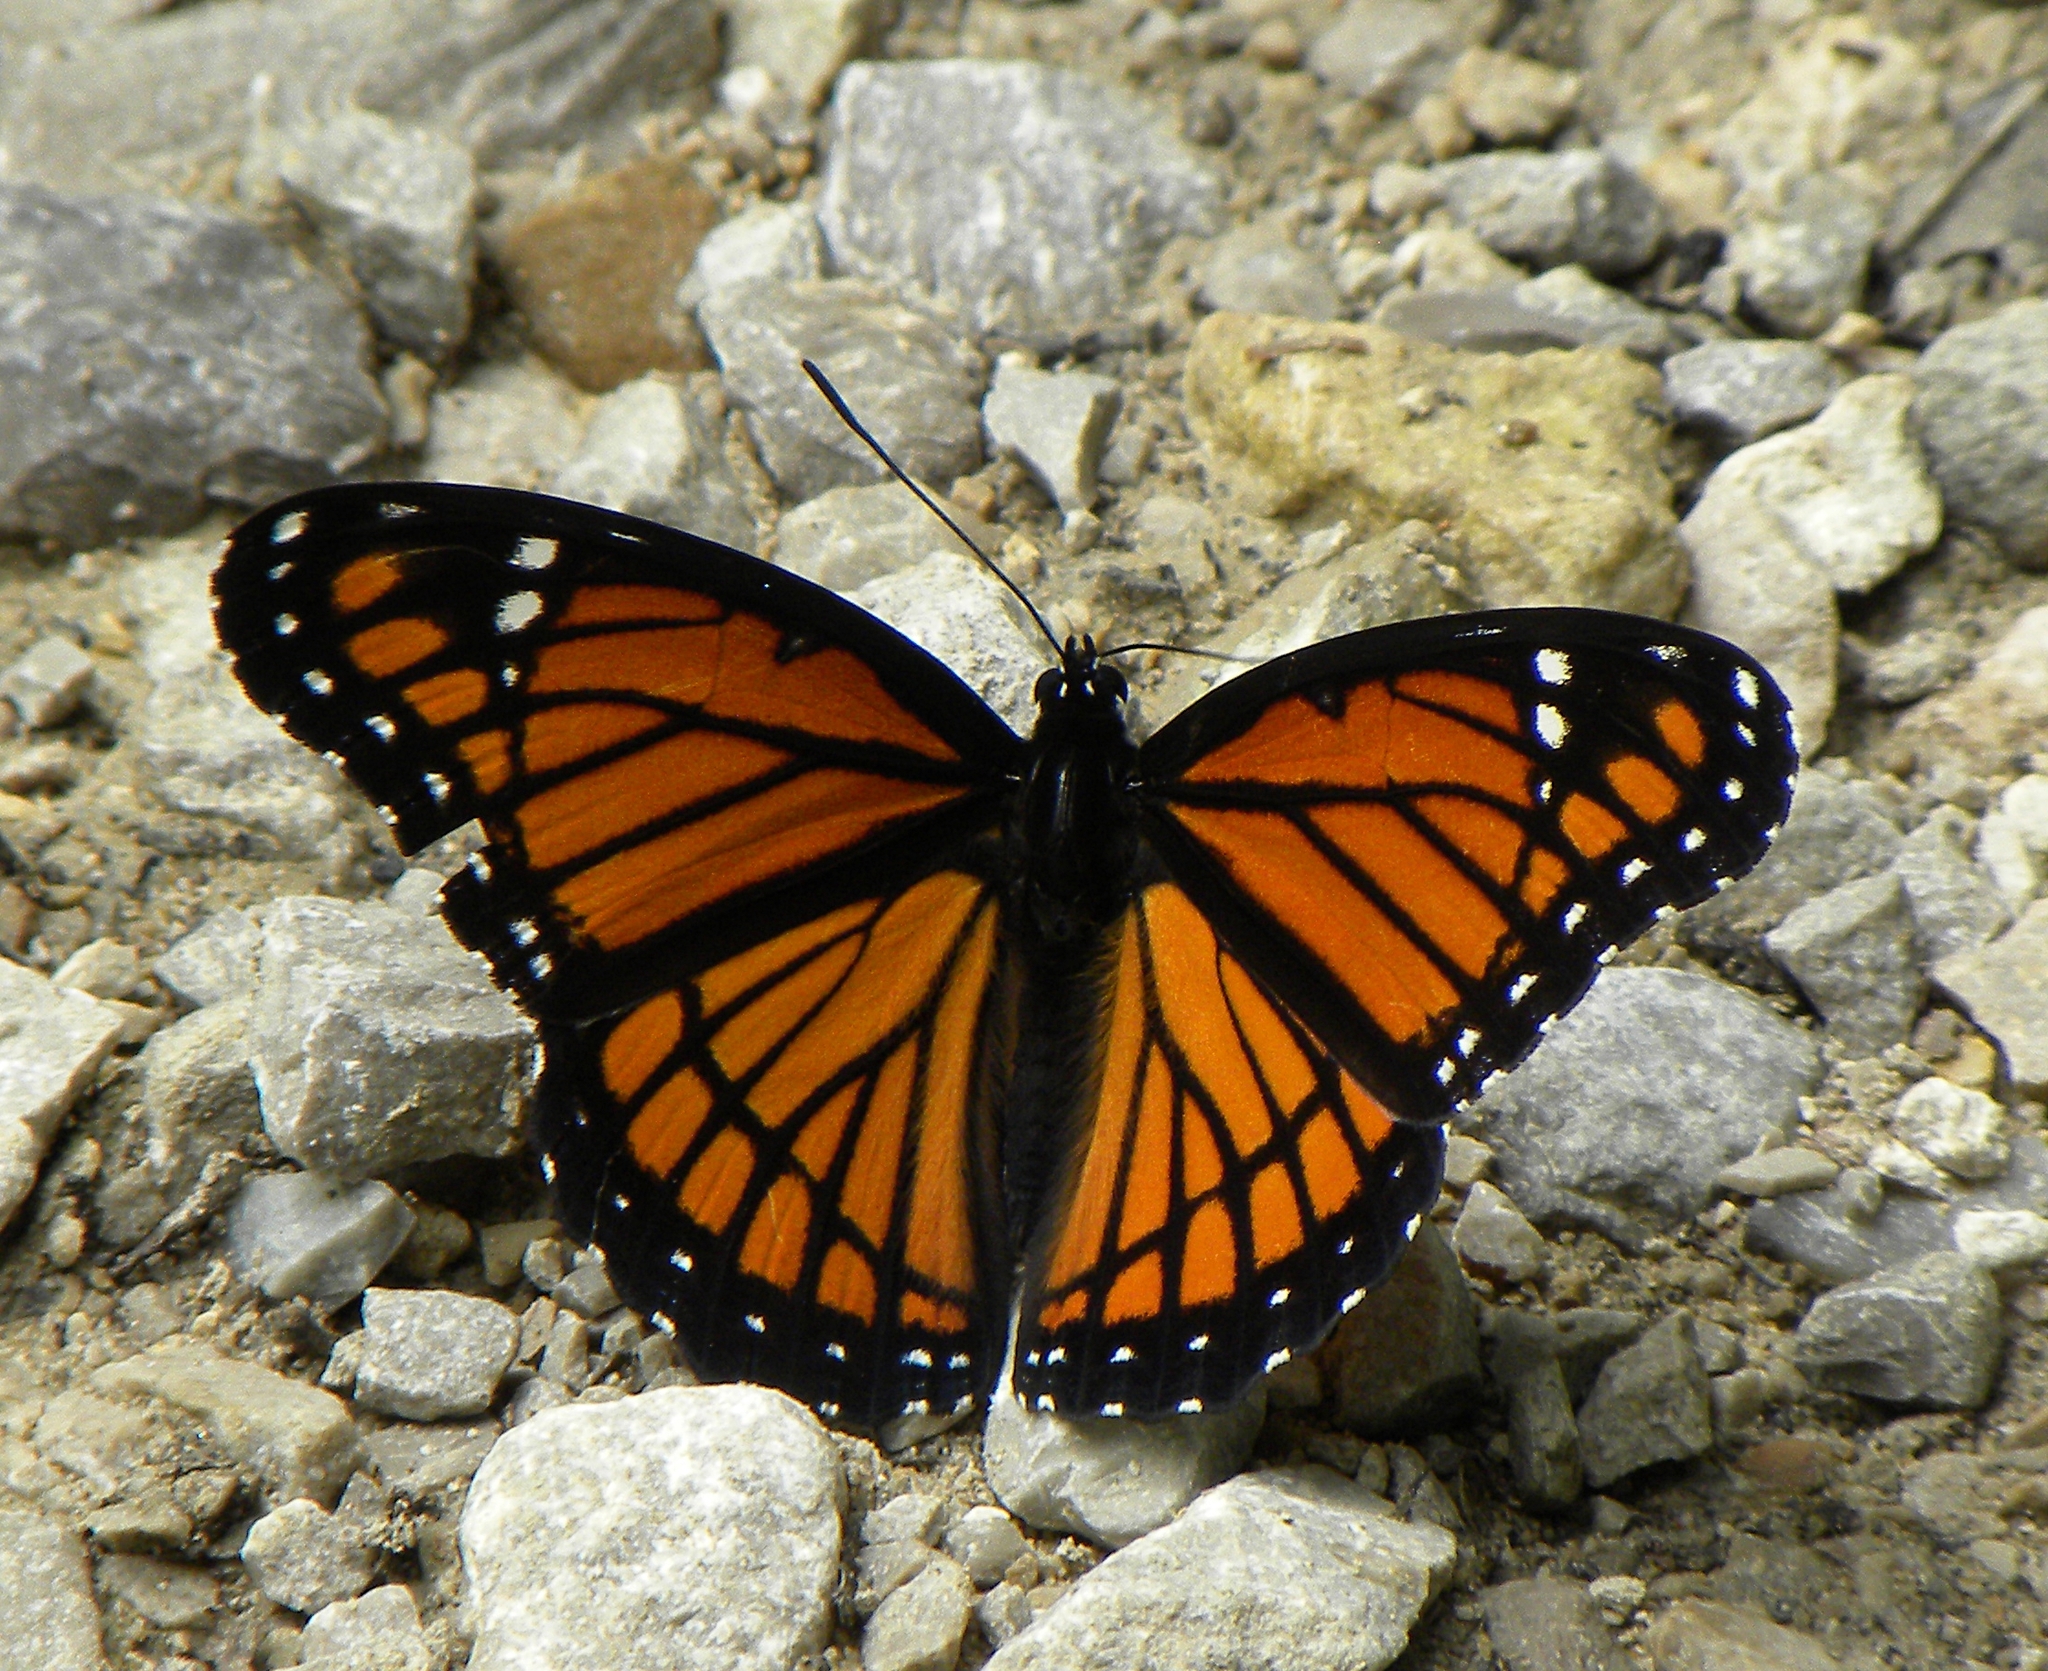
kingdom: Animalia
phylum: Arthropoda
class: Insecta
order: Lepidoptera
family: Nymphalidae
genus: Limenitis
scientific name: Limenitis archippus
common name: Viceroy
